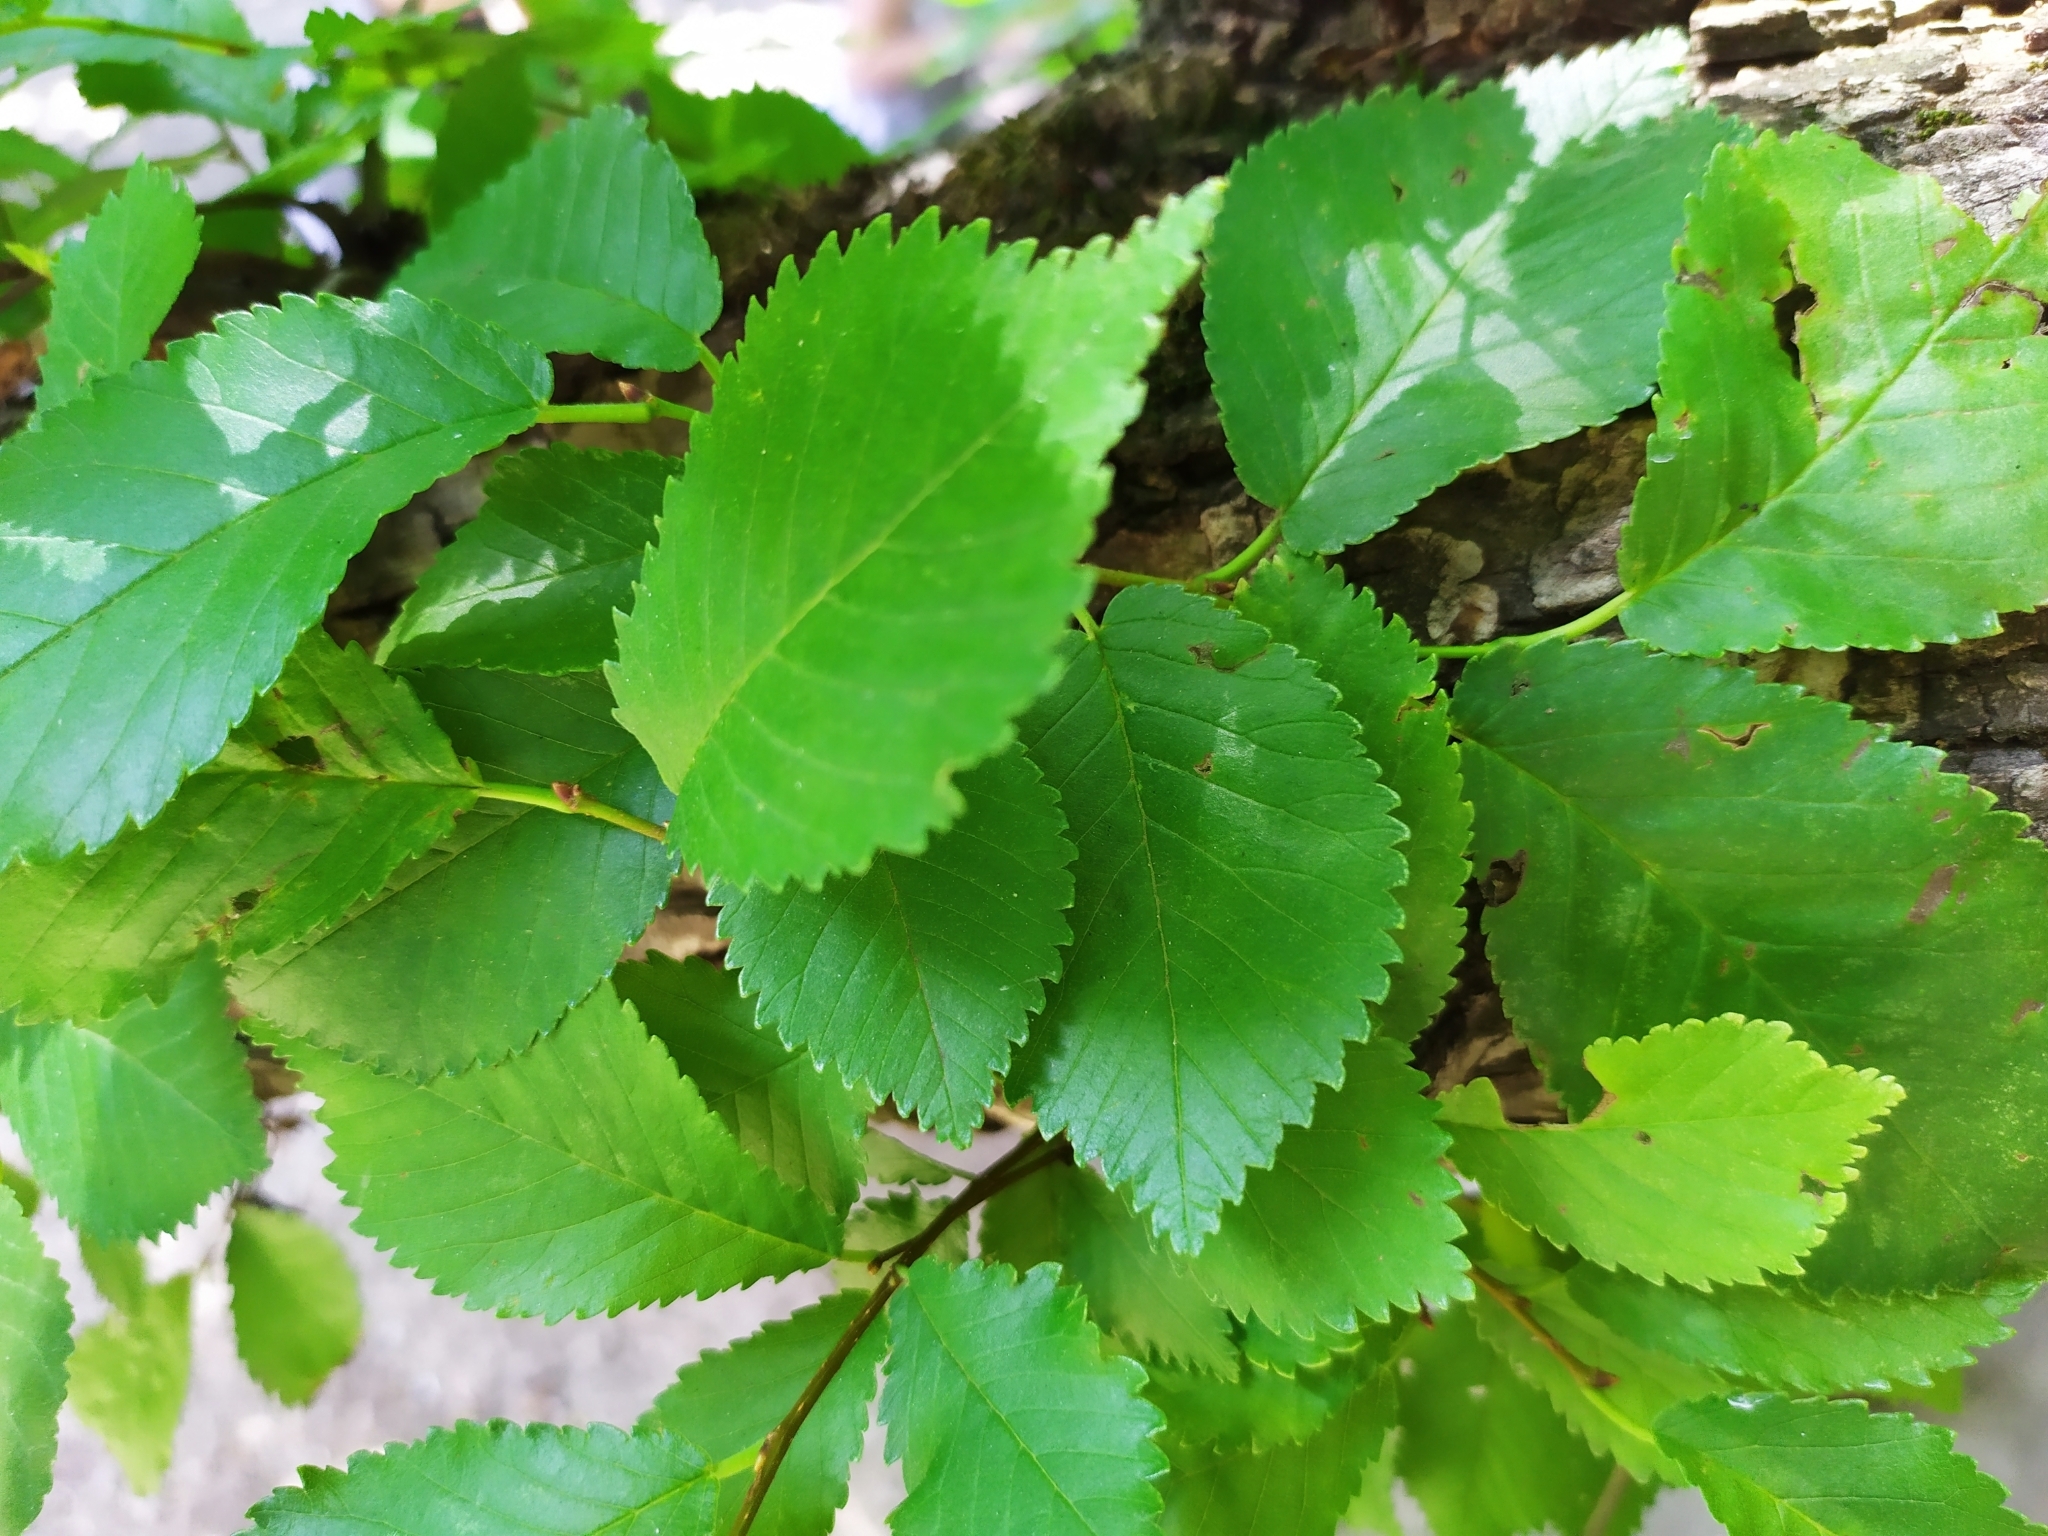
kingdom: Plantae
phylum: Tracheophyta
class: Magnoliopsida
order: Rosales
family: Ulmaceae
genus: Ulmus
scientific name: Ulmus minor
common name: Small-leaved elm
